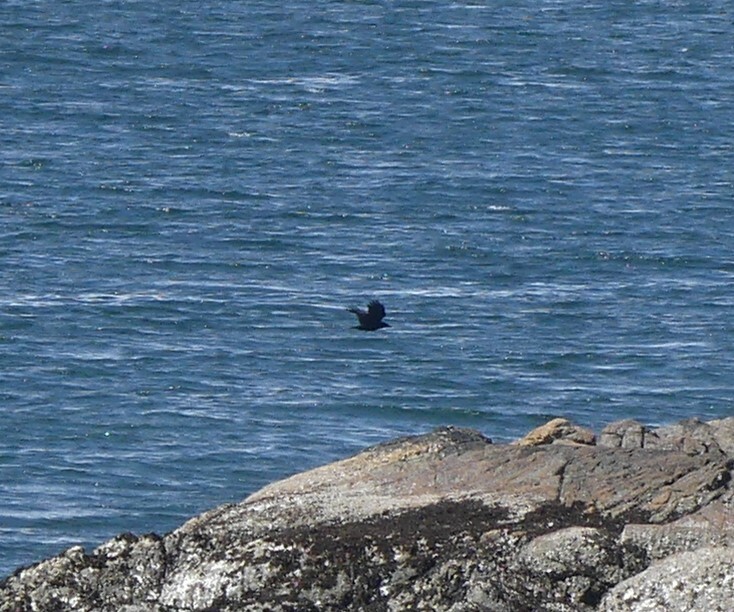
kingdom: Animalia
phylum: Chordata
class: Aves
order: Passeriformes
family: Corvidae
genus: Corvus
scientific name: Corvus brachyrhynchos
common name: American crow
